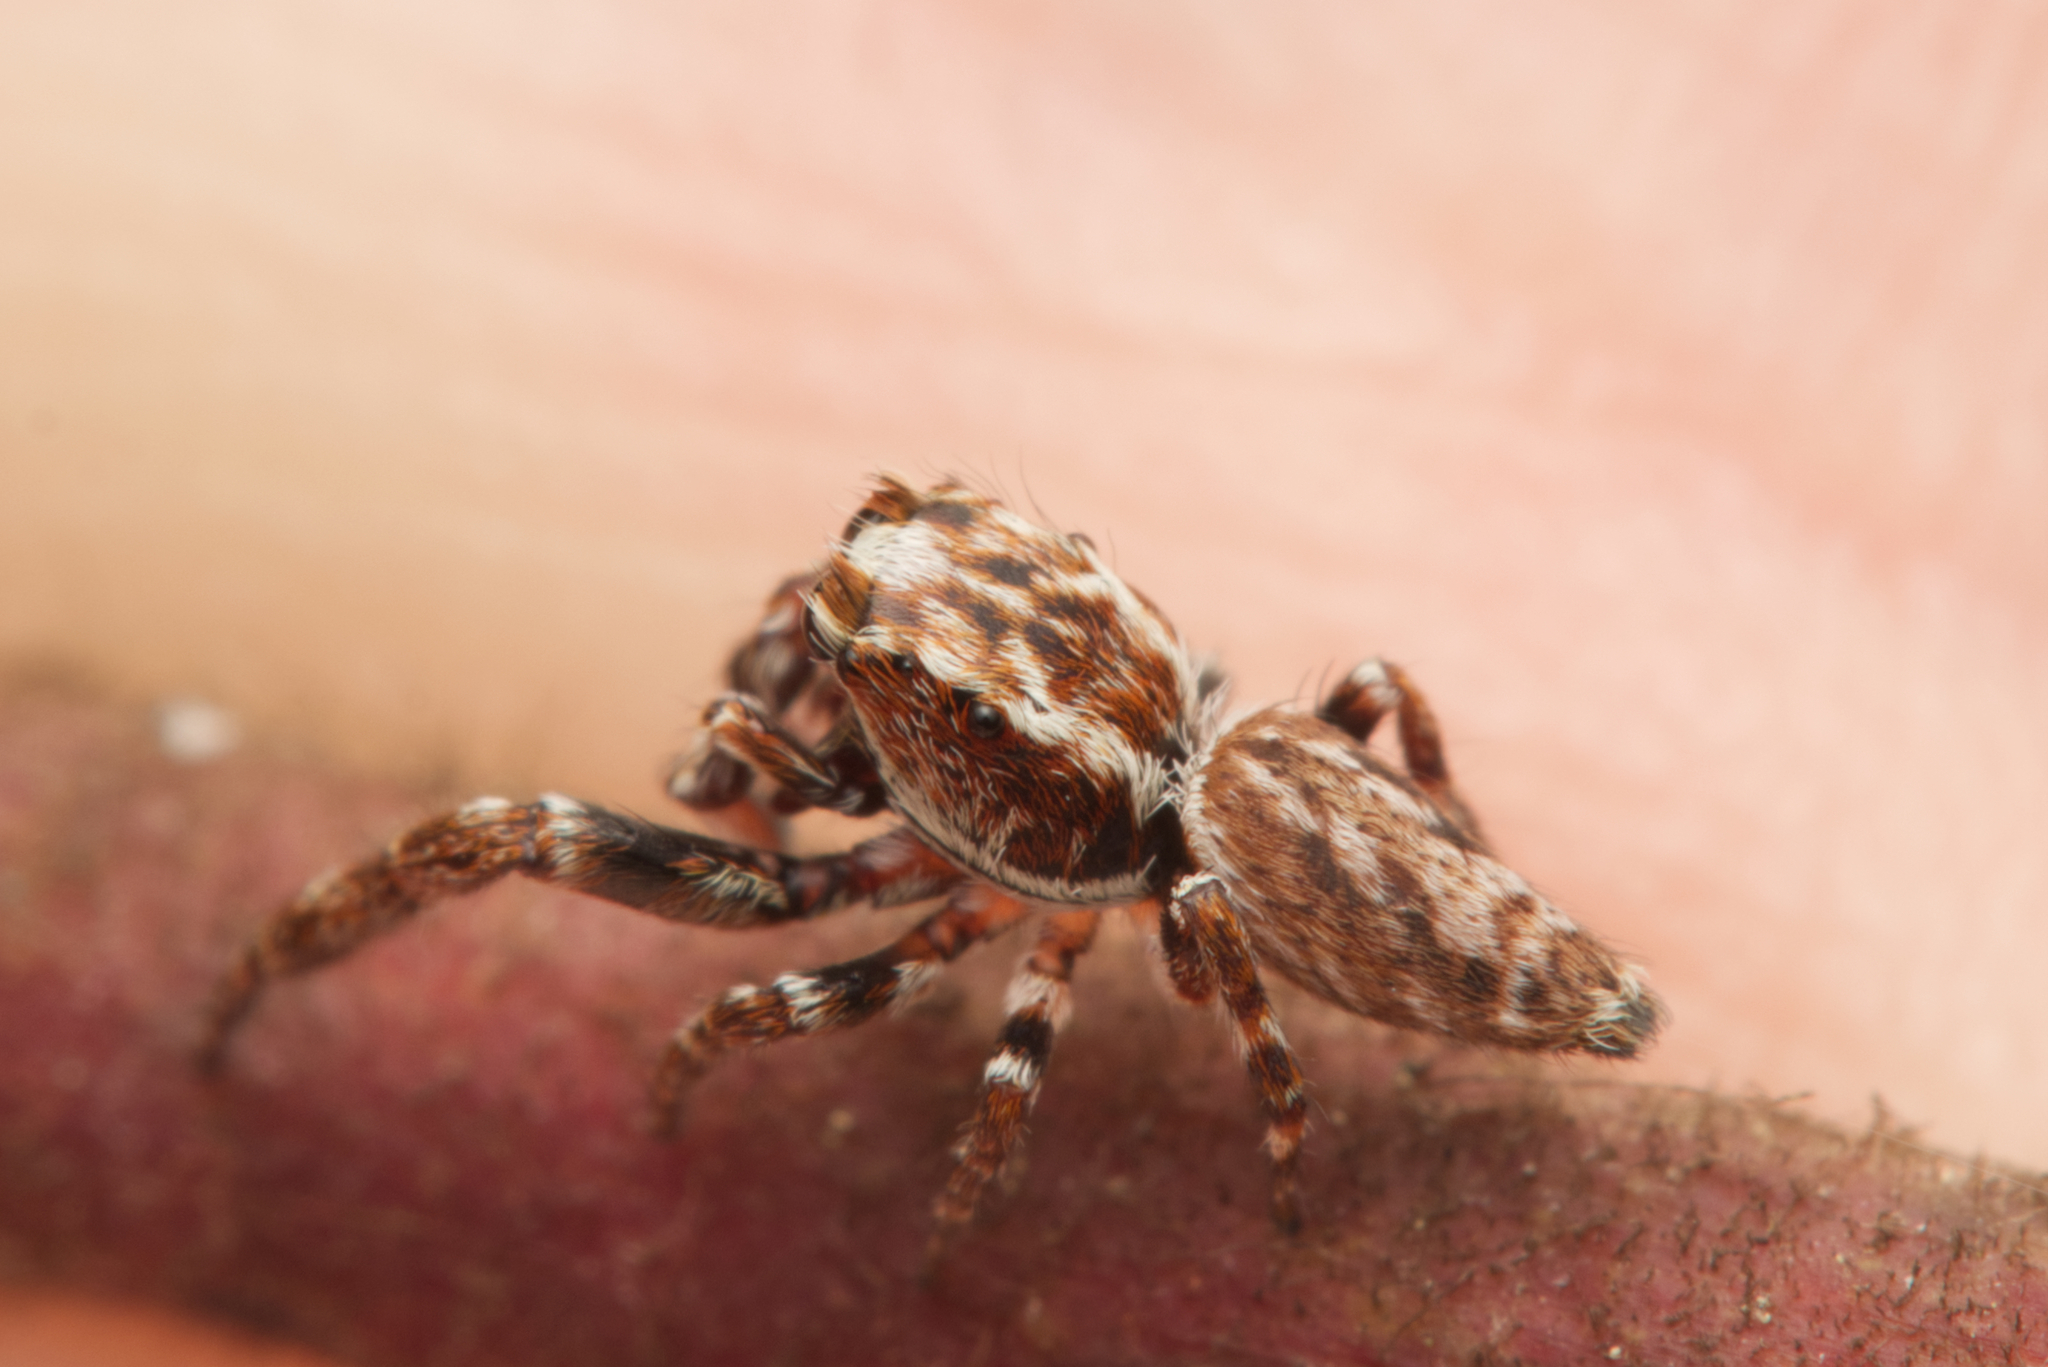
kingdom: Animalia
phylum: Arthropoda
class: Arachnida
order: Araneae
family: Salticidae
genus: Paraphilaeus
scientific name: Paraphilaeus daemeli
